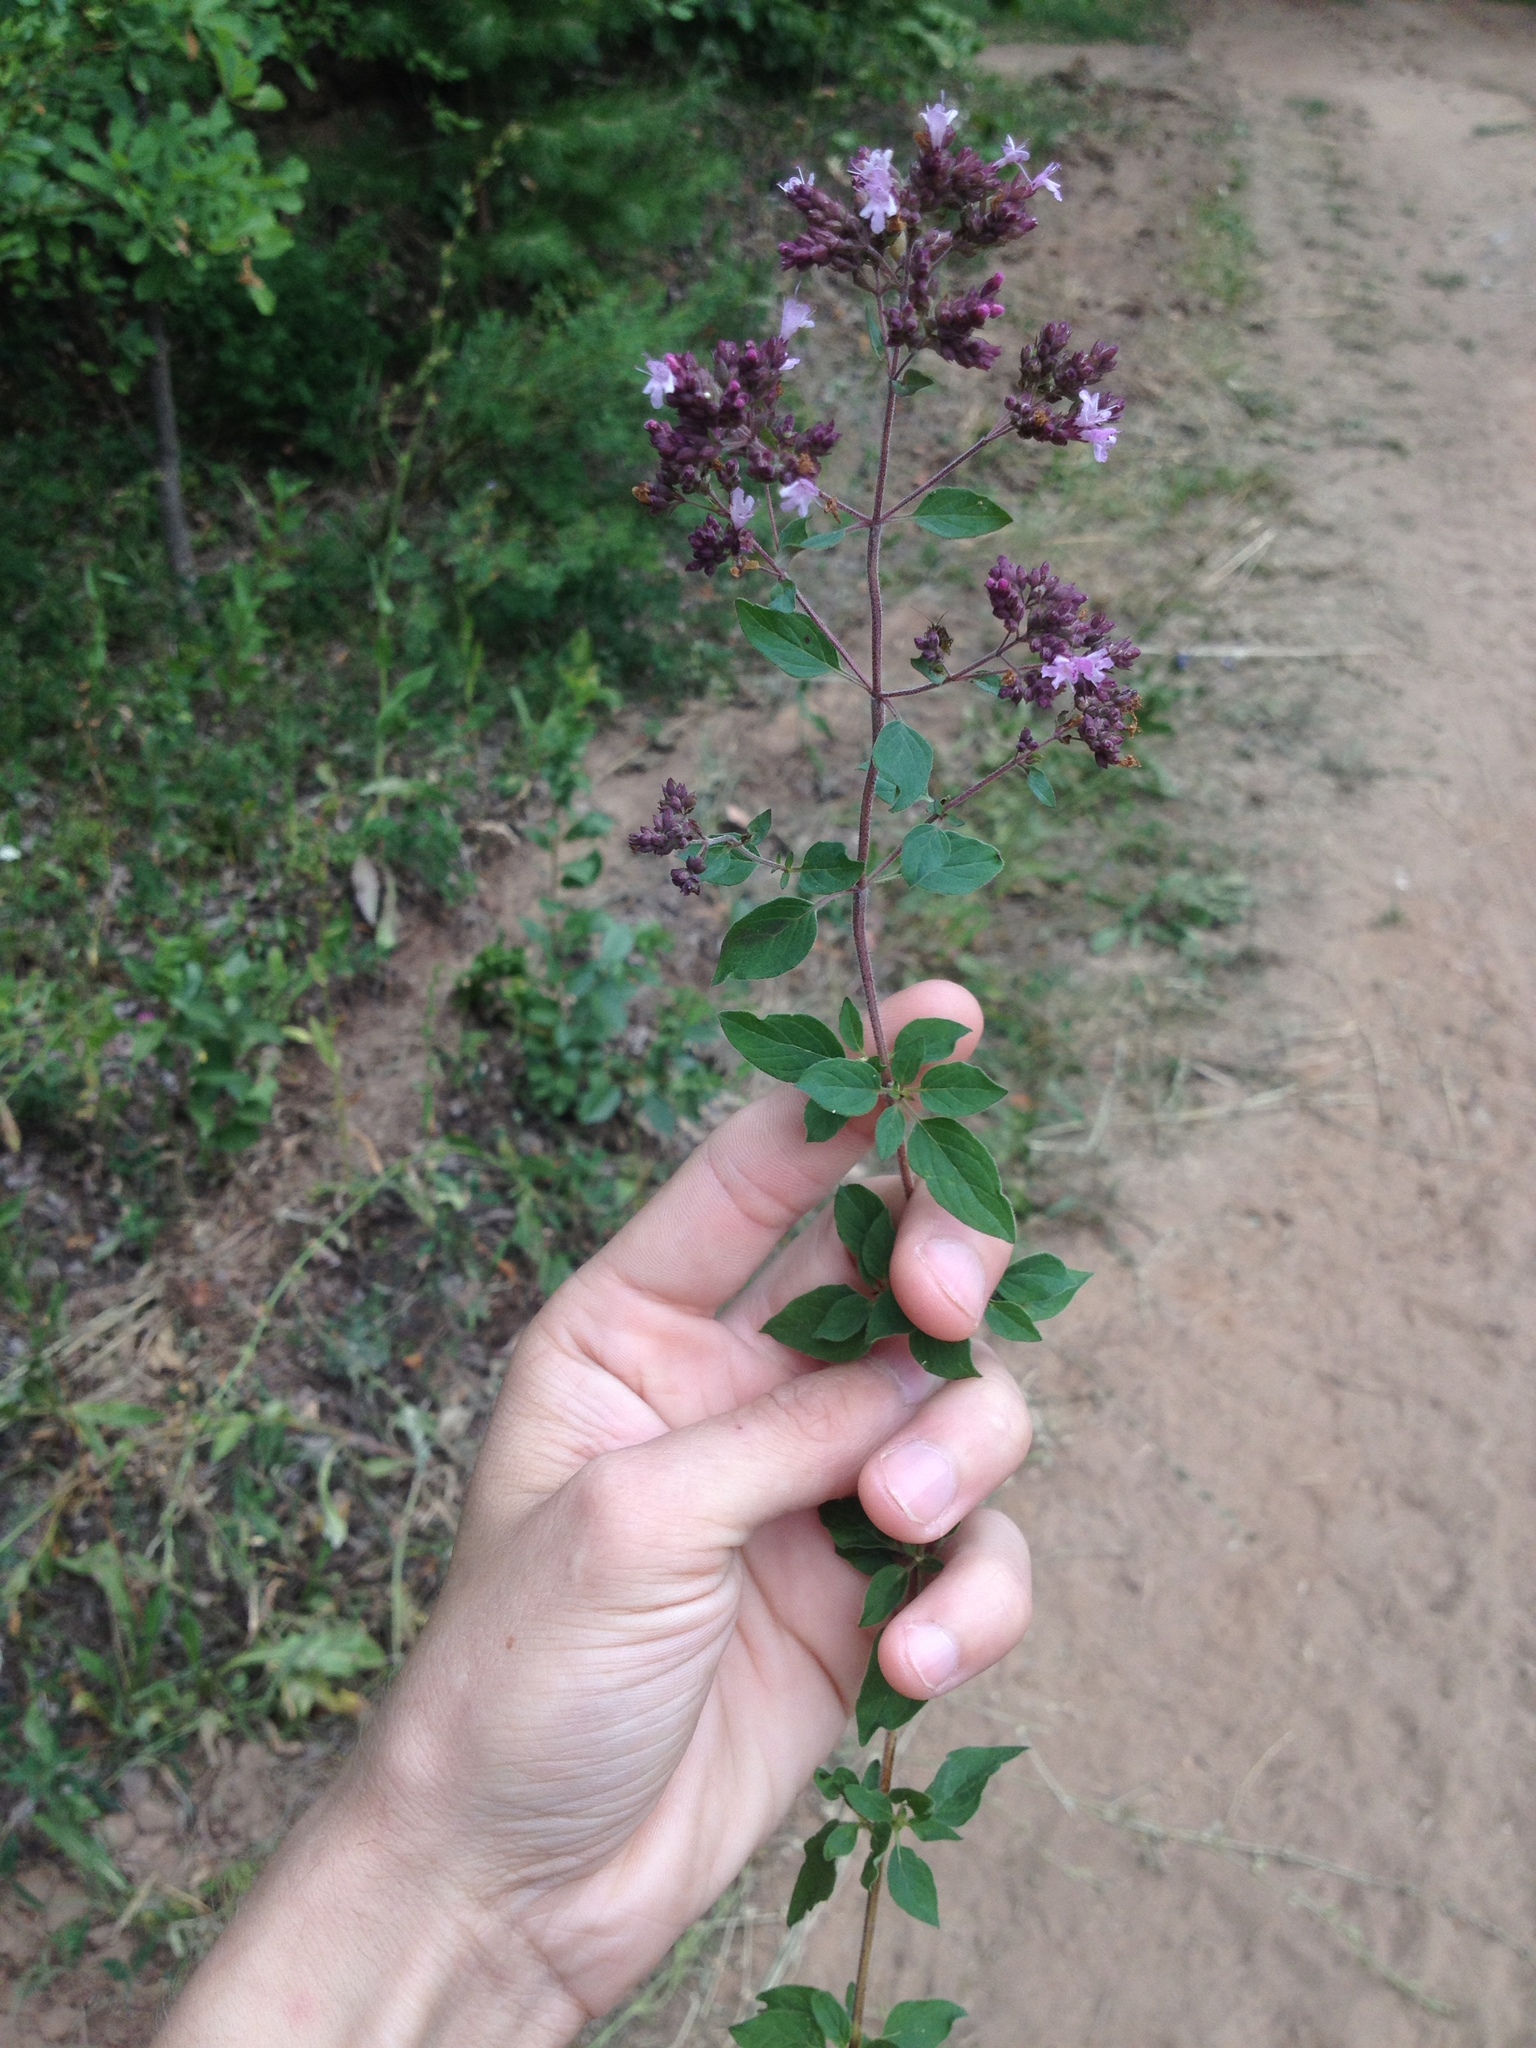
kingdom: Plantae
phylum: Tracheophyta
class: Magnoliopsida
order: Lamiales
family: Lamiaceae
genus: Origanum
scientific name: Origanum vulgare
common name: Wild marjoram
